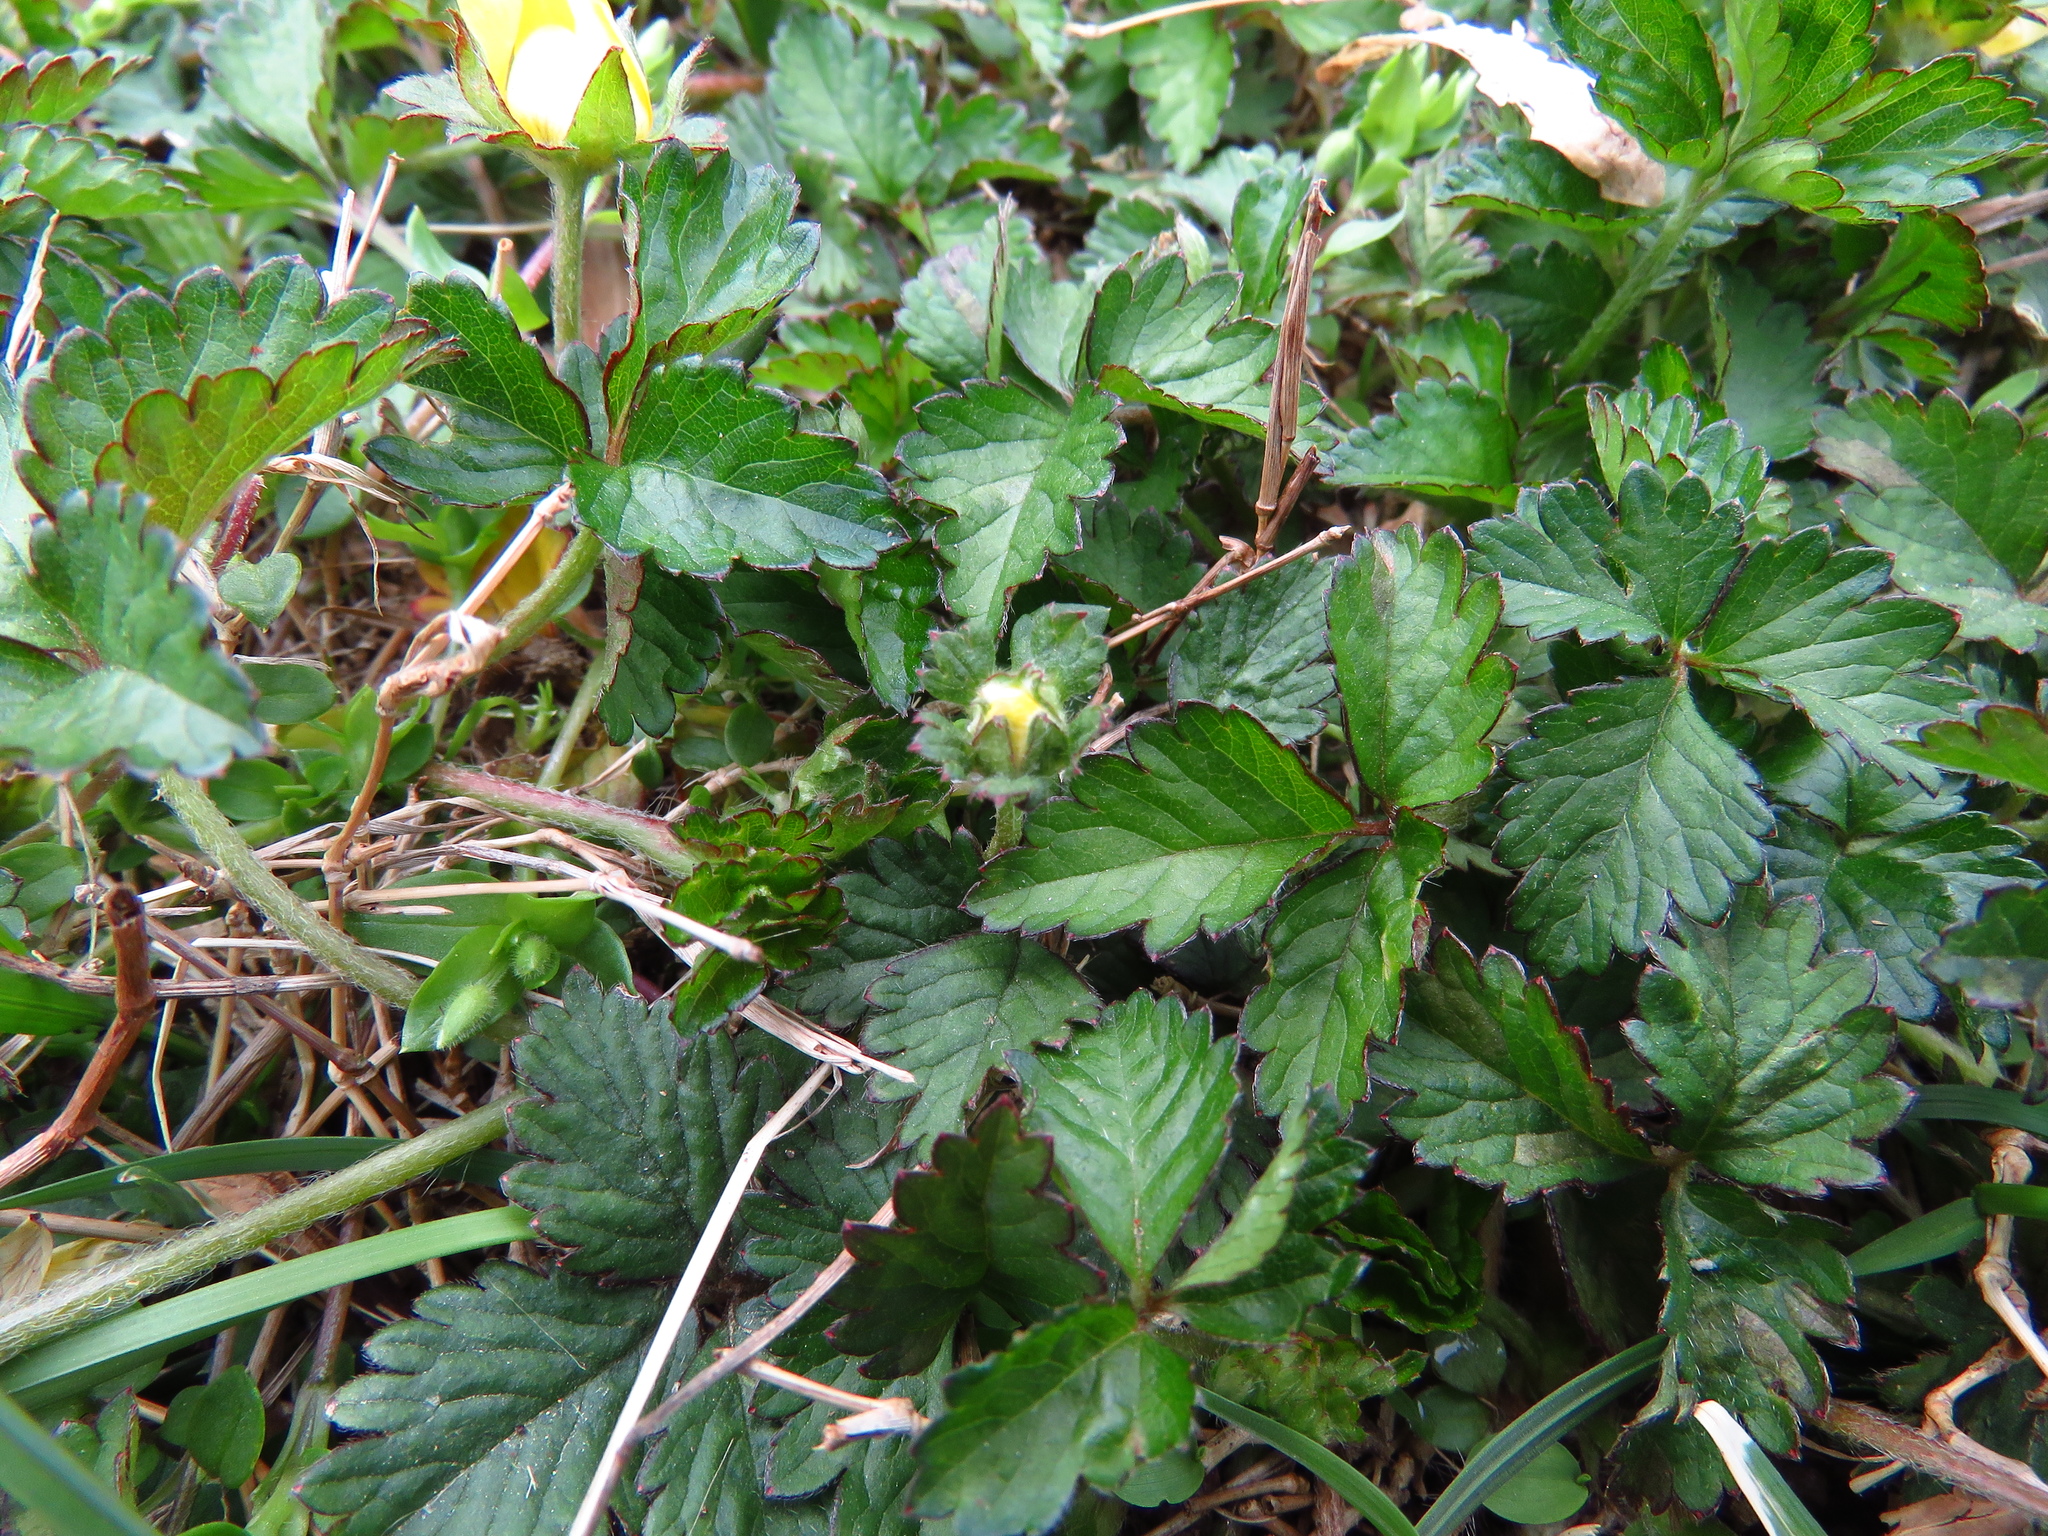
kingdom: Plantae
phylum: Tracheophyta
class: Magnoliopsida
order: Rosales
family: Rosaceae
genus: Potentilla
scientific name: Potentilla indica
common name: Yellow-flowered strawberry
